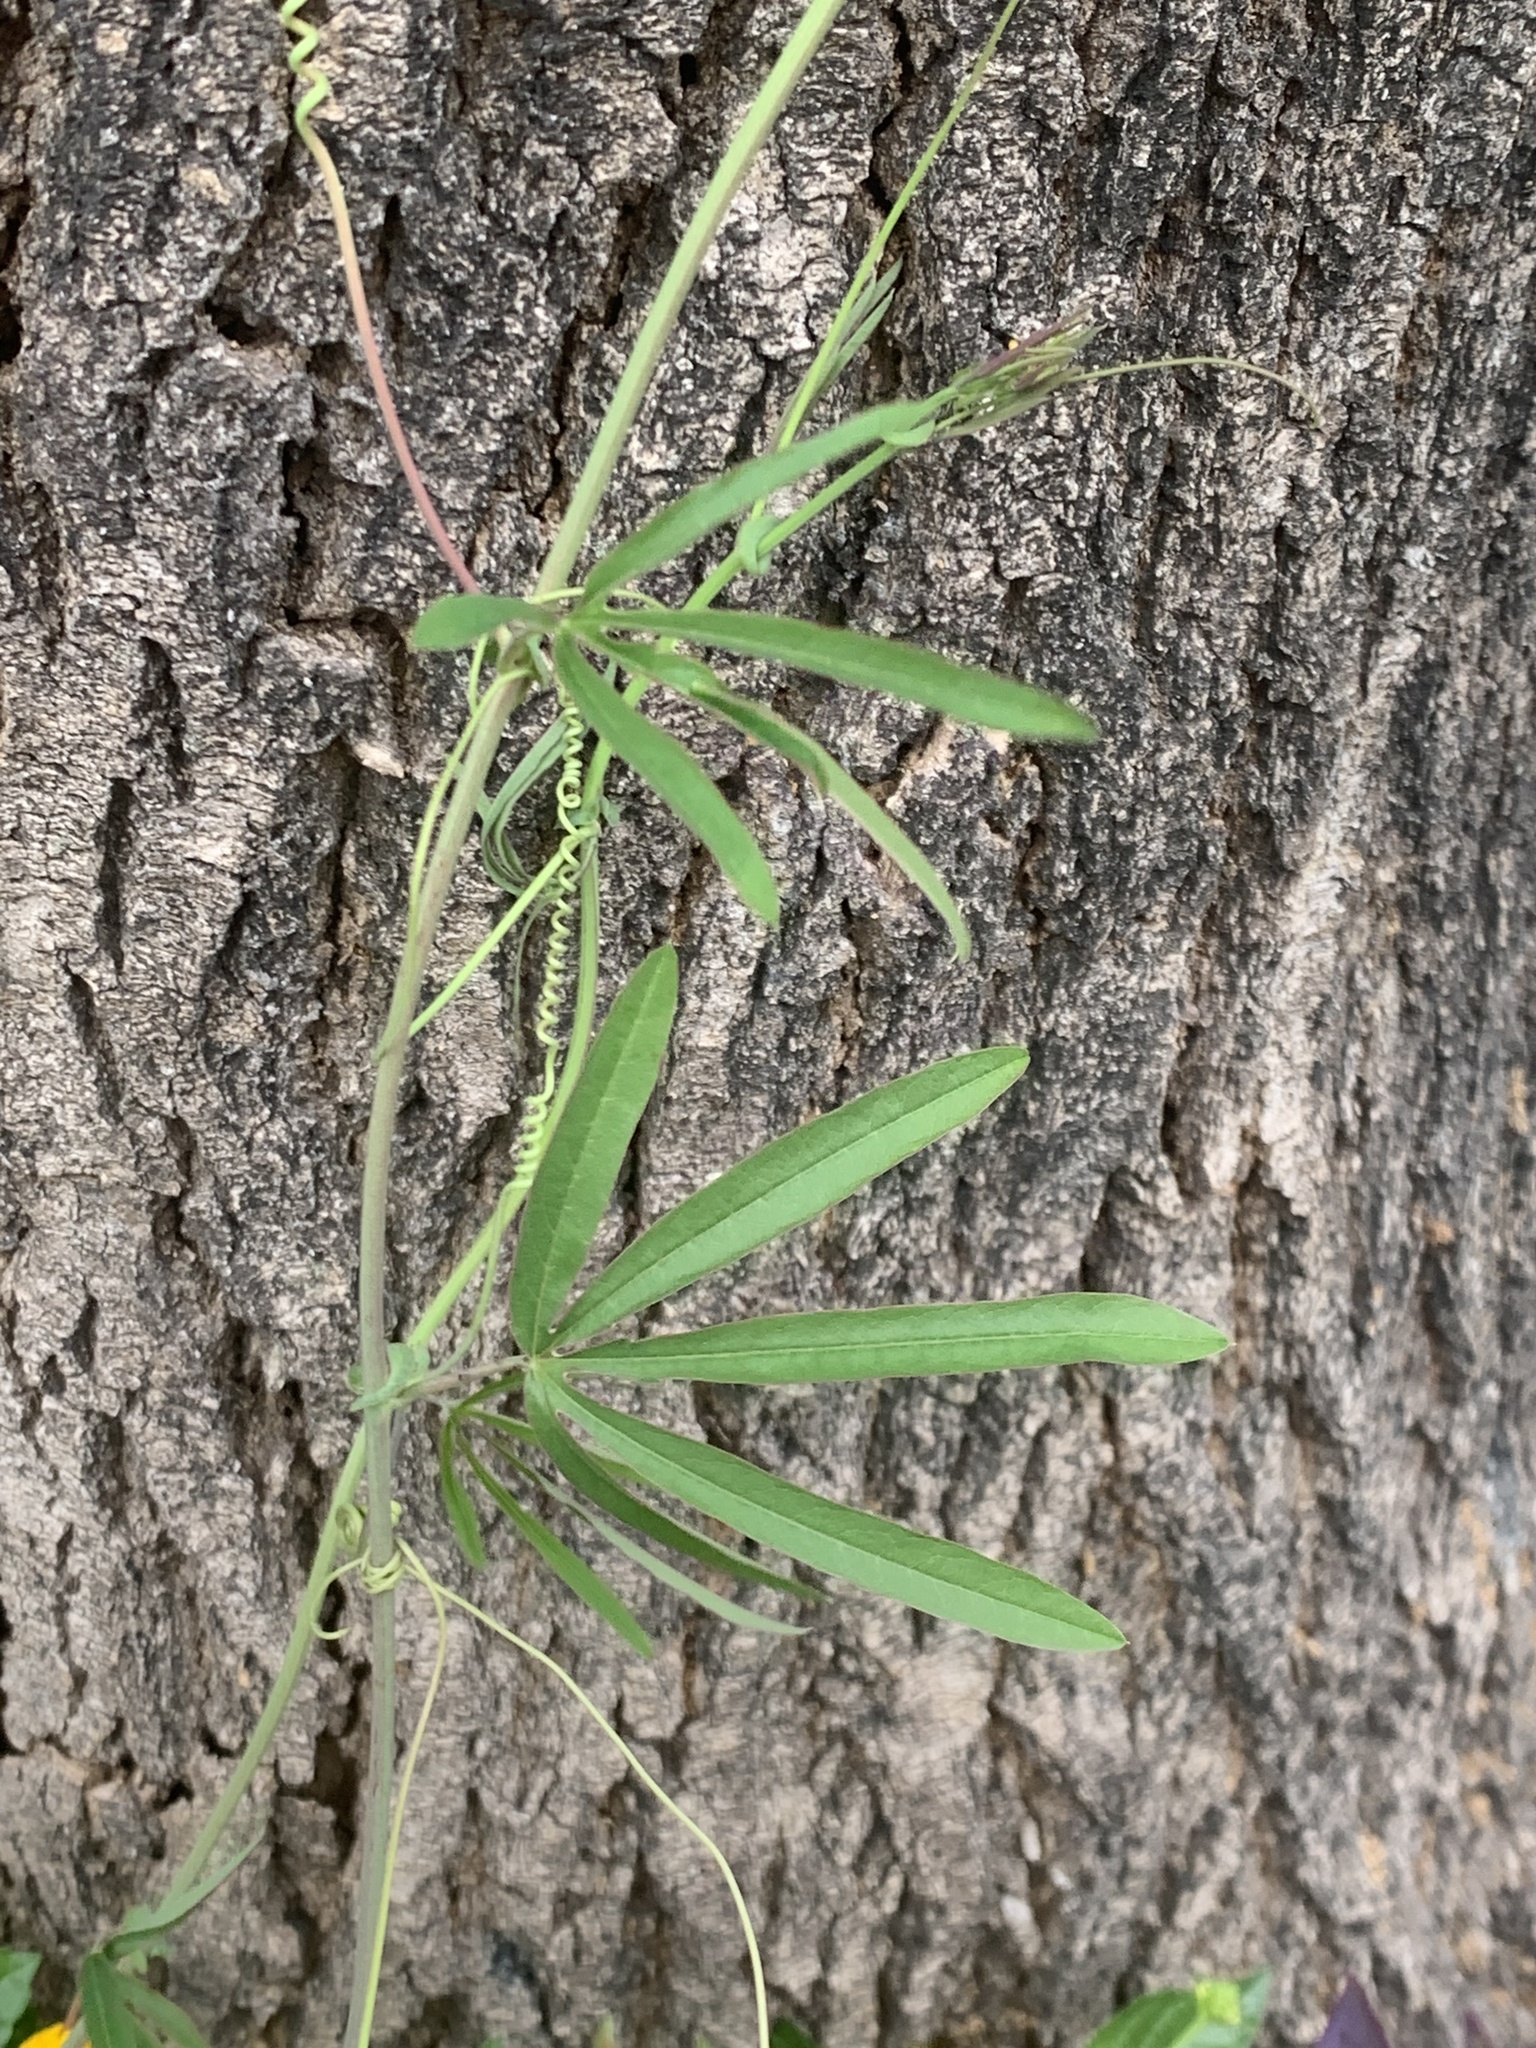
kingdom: Plantae
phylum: Tracheophyta
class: Magnoliopsida
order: Malpighiales
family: Passifloraceae
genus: Passiflora
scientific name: Passiflora caerulea
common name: Blue passionflower
